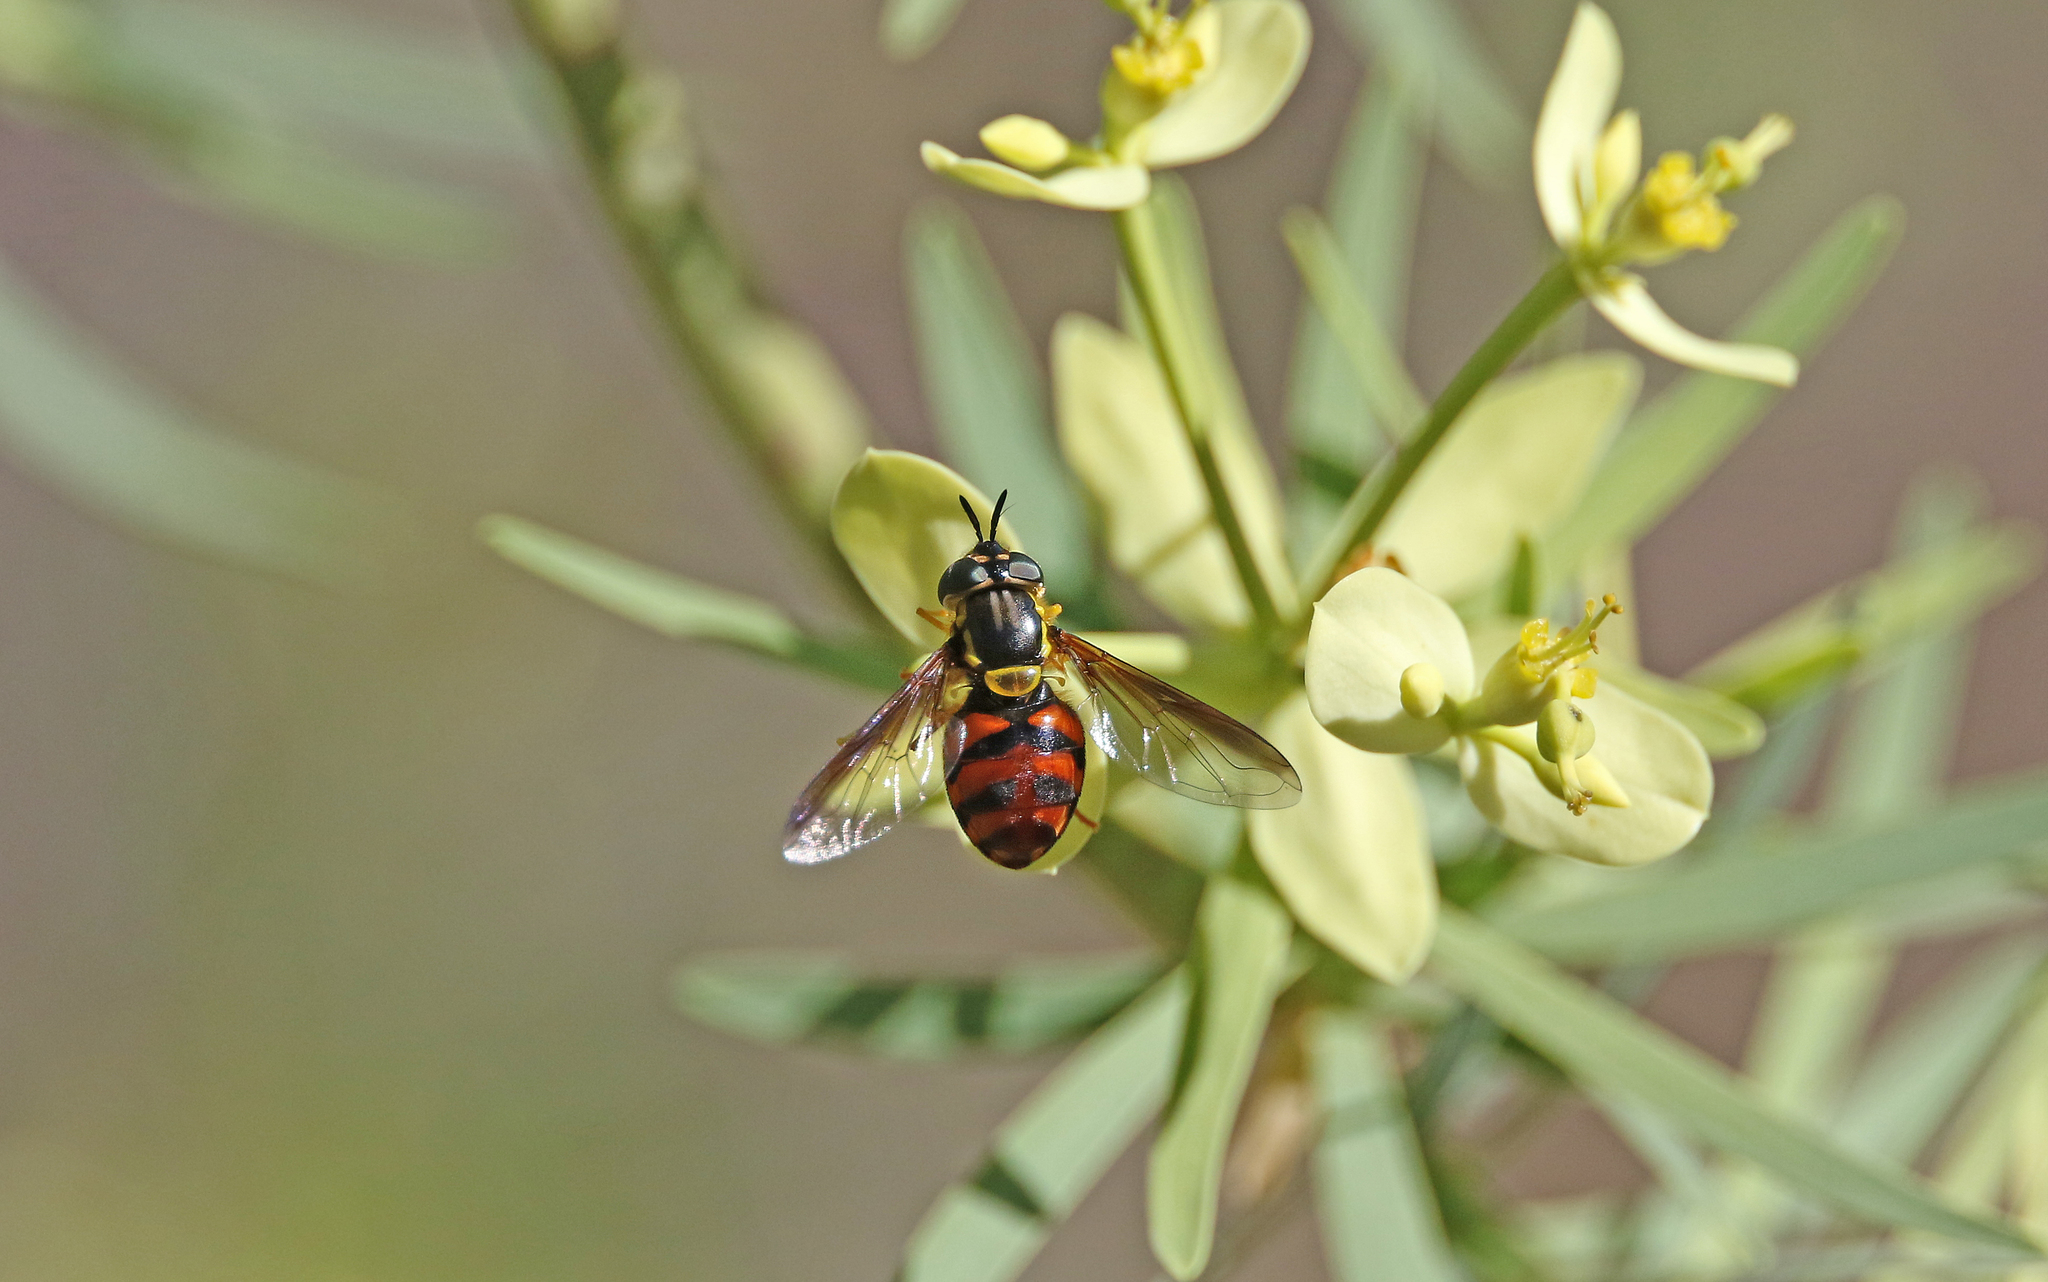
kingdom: Animalia
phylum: Arthropoda
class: Insecta
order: Diptera
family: Syrphidae
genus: Chrysotoxum
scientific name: Chrysotoxum triarcuatum
